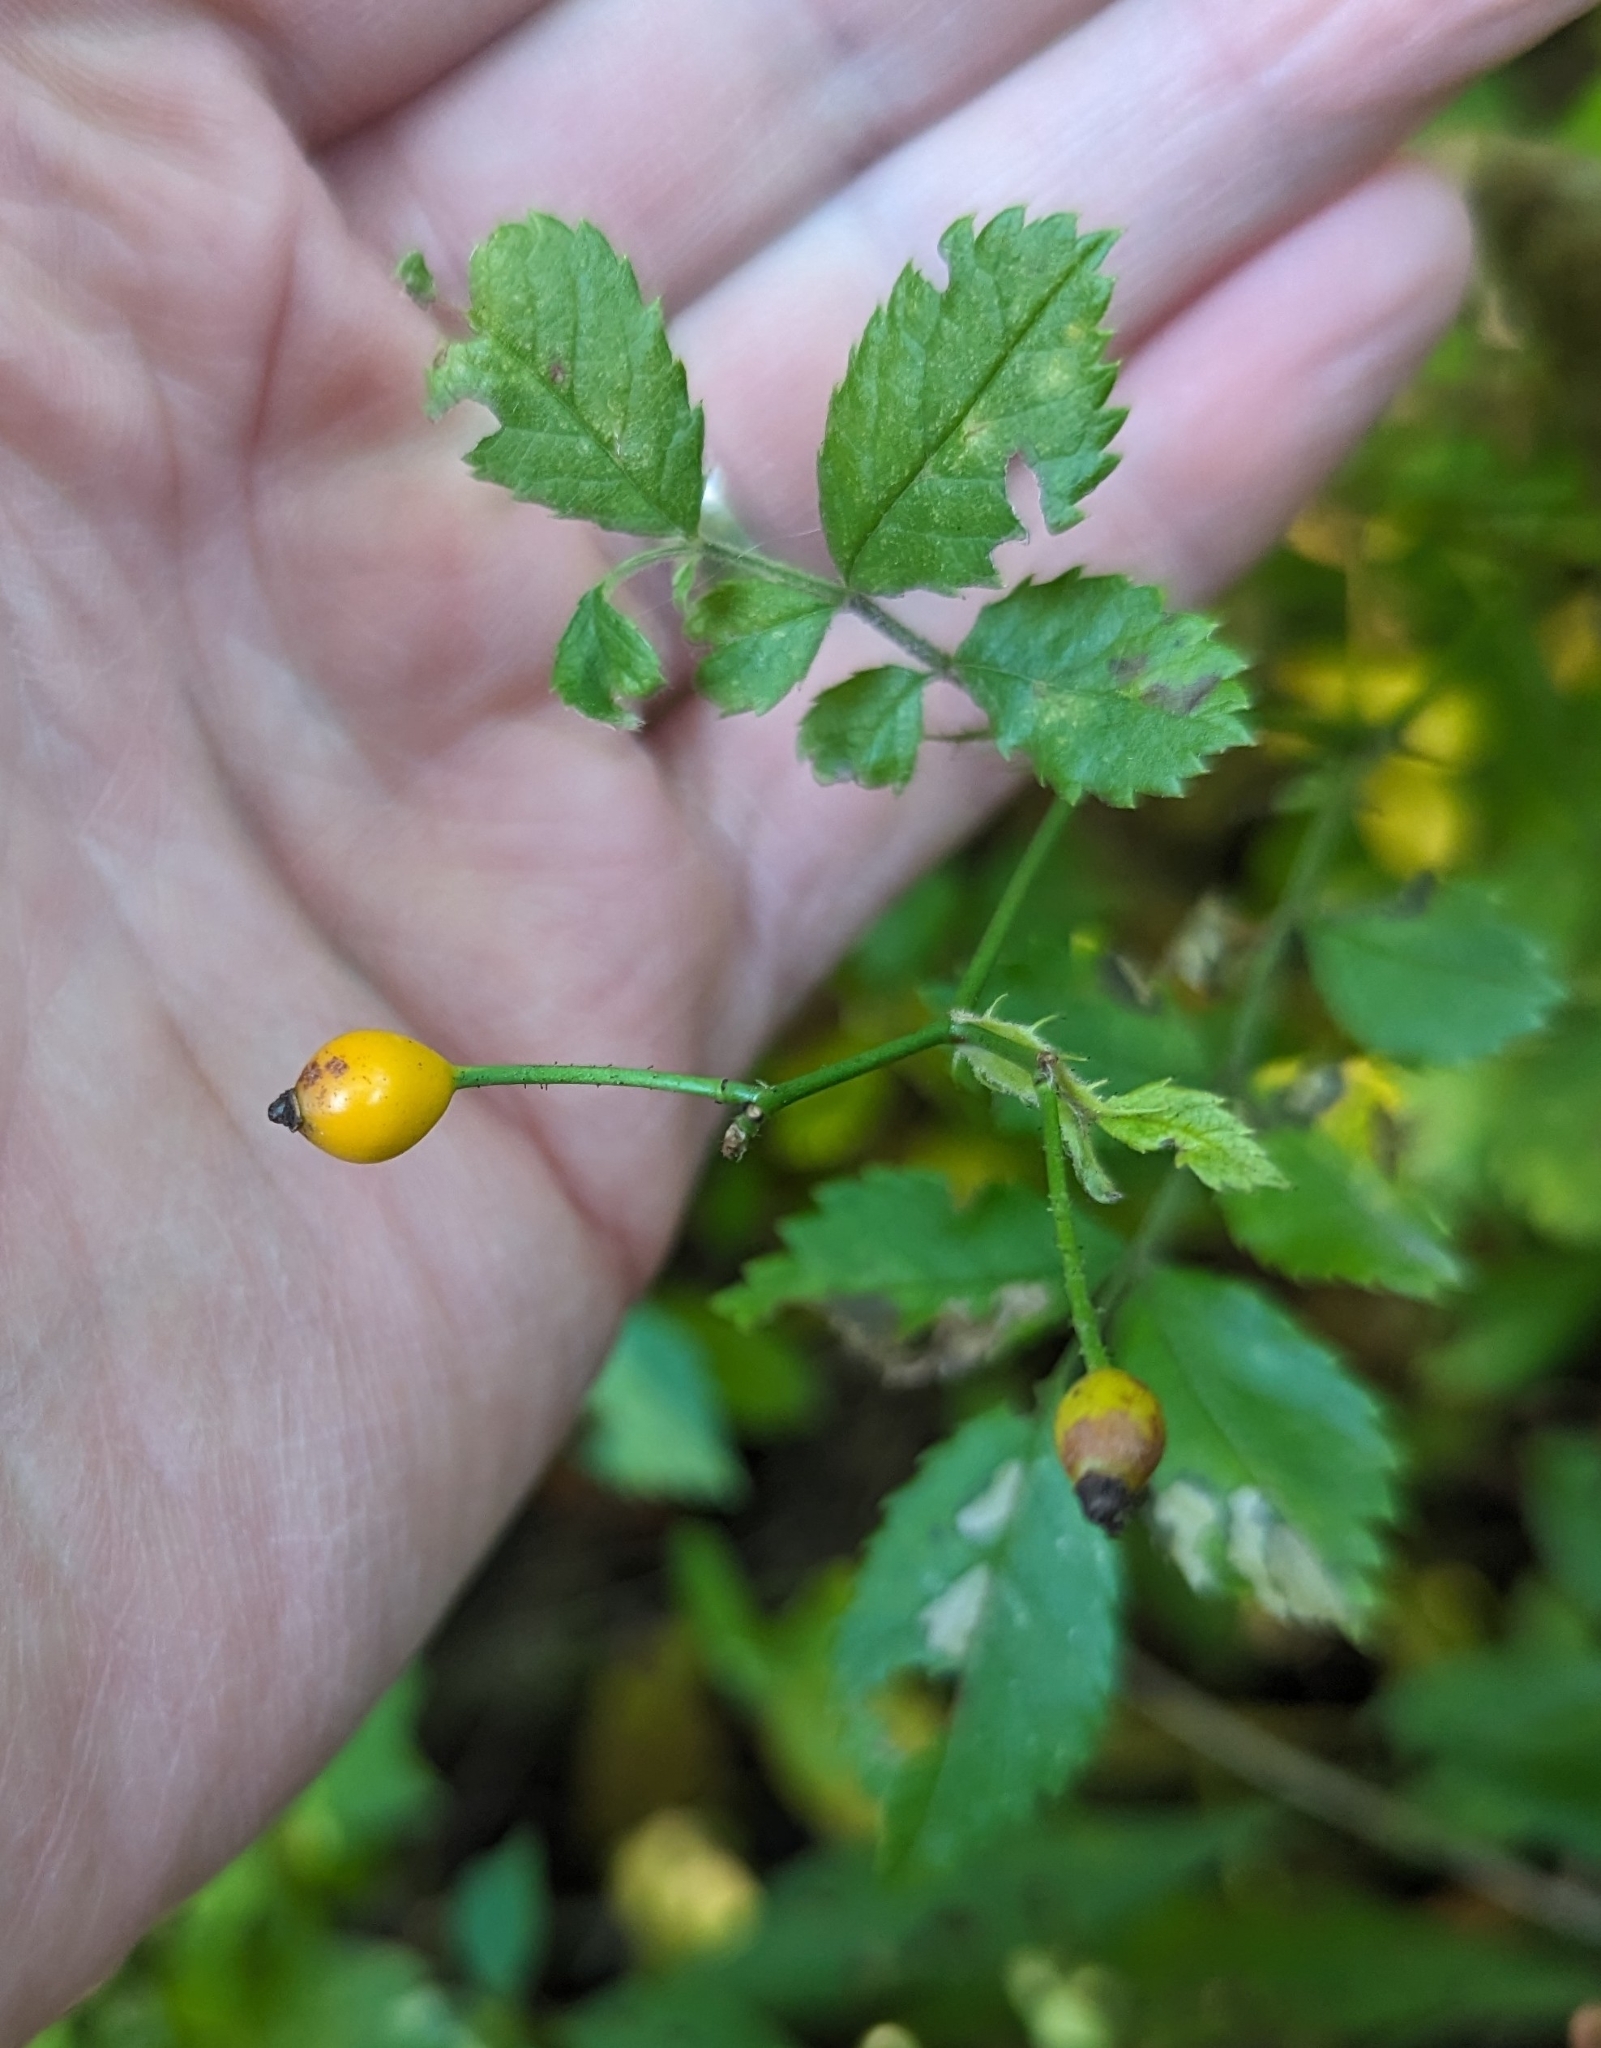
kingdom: Plantae
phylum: Tracheophyta
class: Magnoliopsida
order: Rosales
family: Rosaceae
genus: Rosa
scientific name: Rosa multiflora
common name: Multiflora rose
